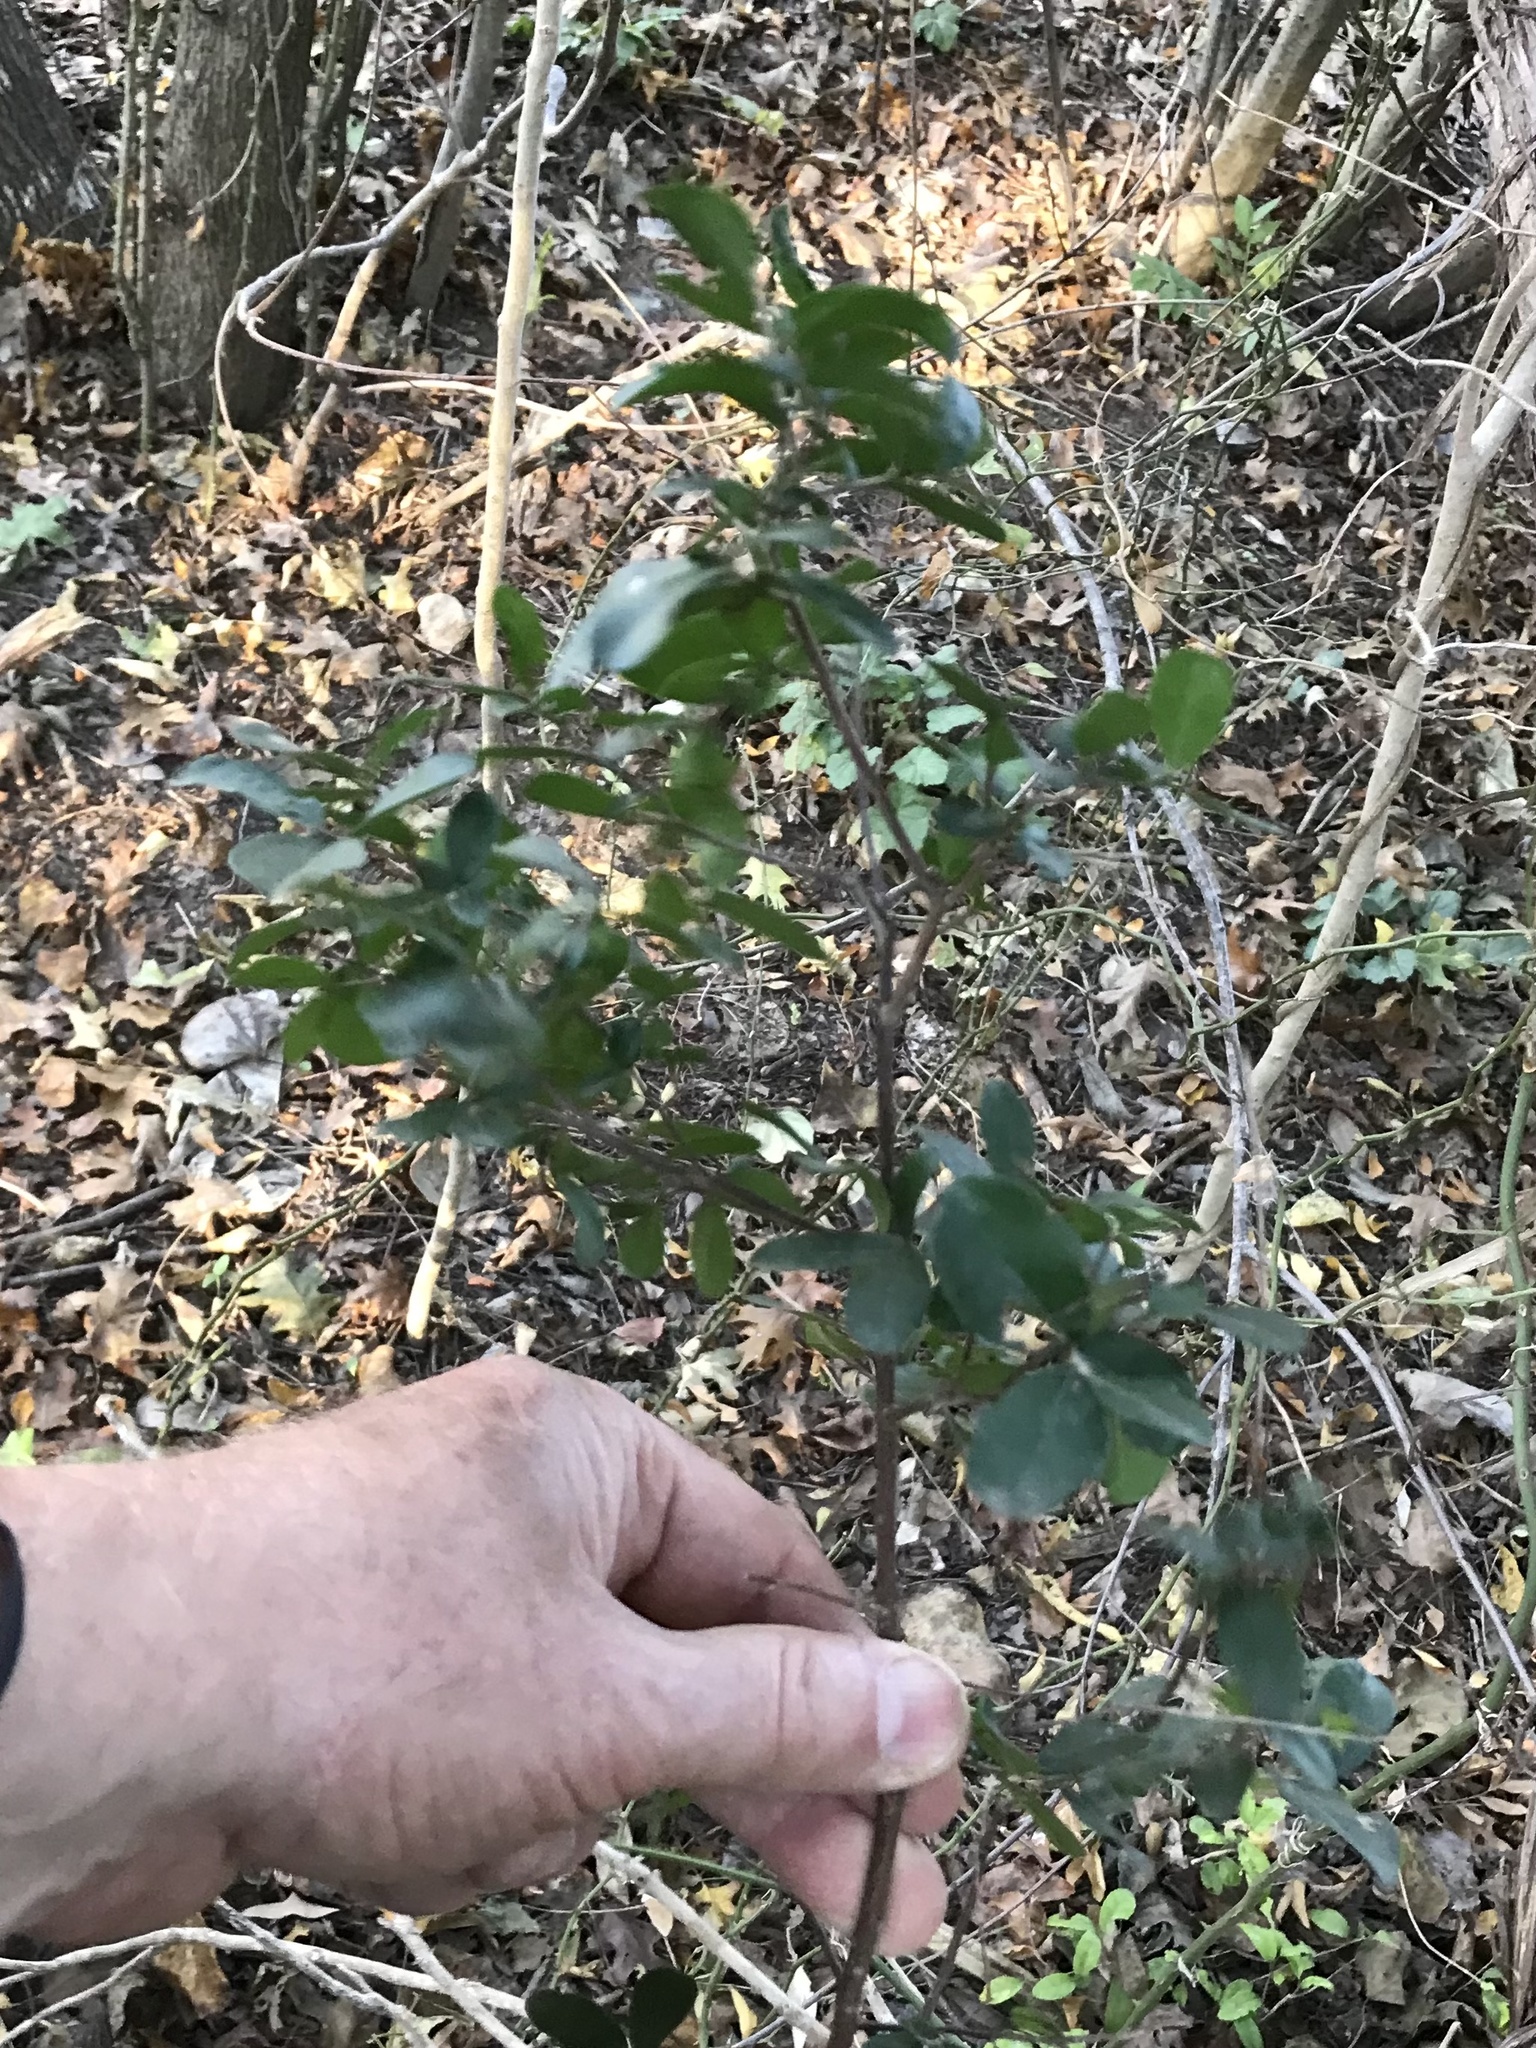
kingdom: Plantae
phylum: Tracheophyta
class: Magnoliopsida
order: Ericales
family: Ebenaceae
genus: Diospyros
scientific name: Diospyros texana
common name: Texas persimmon
